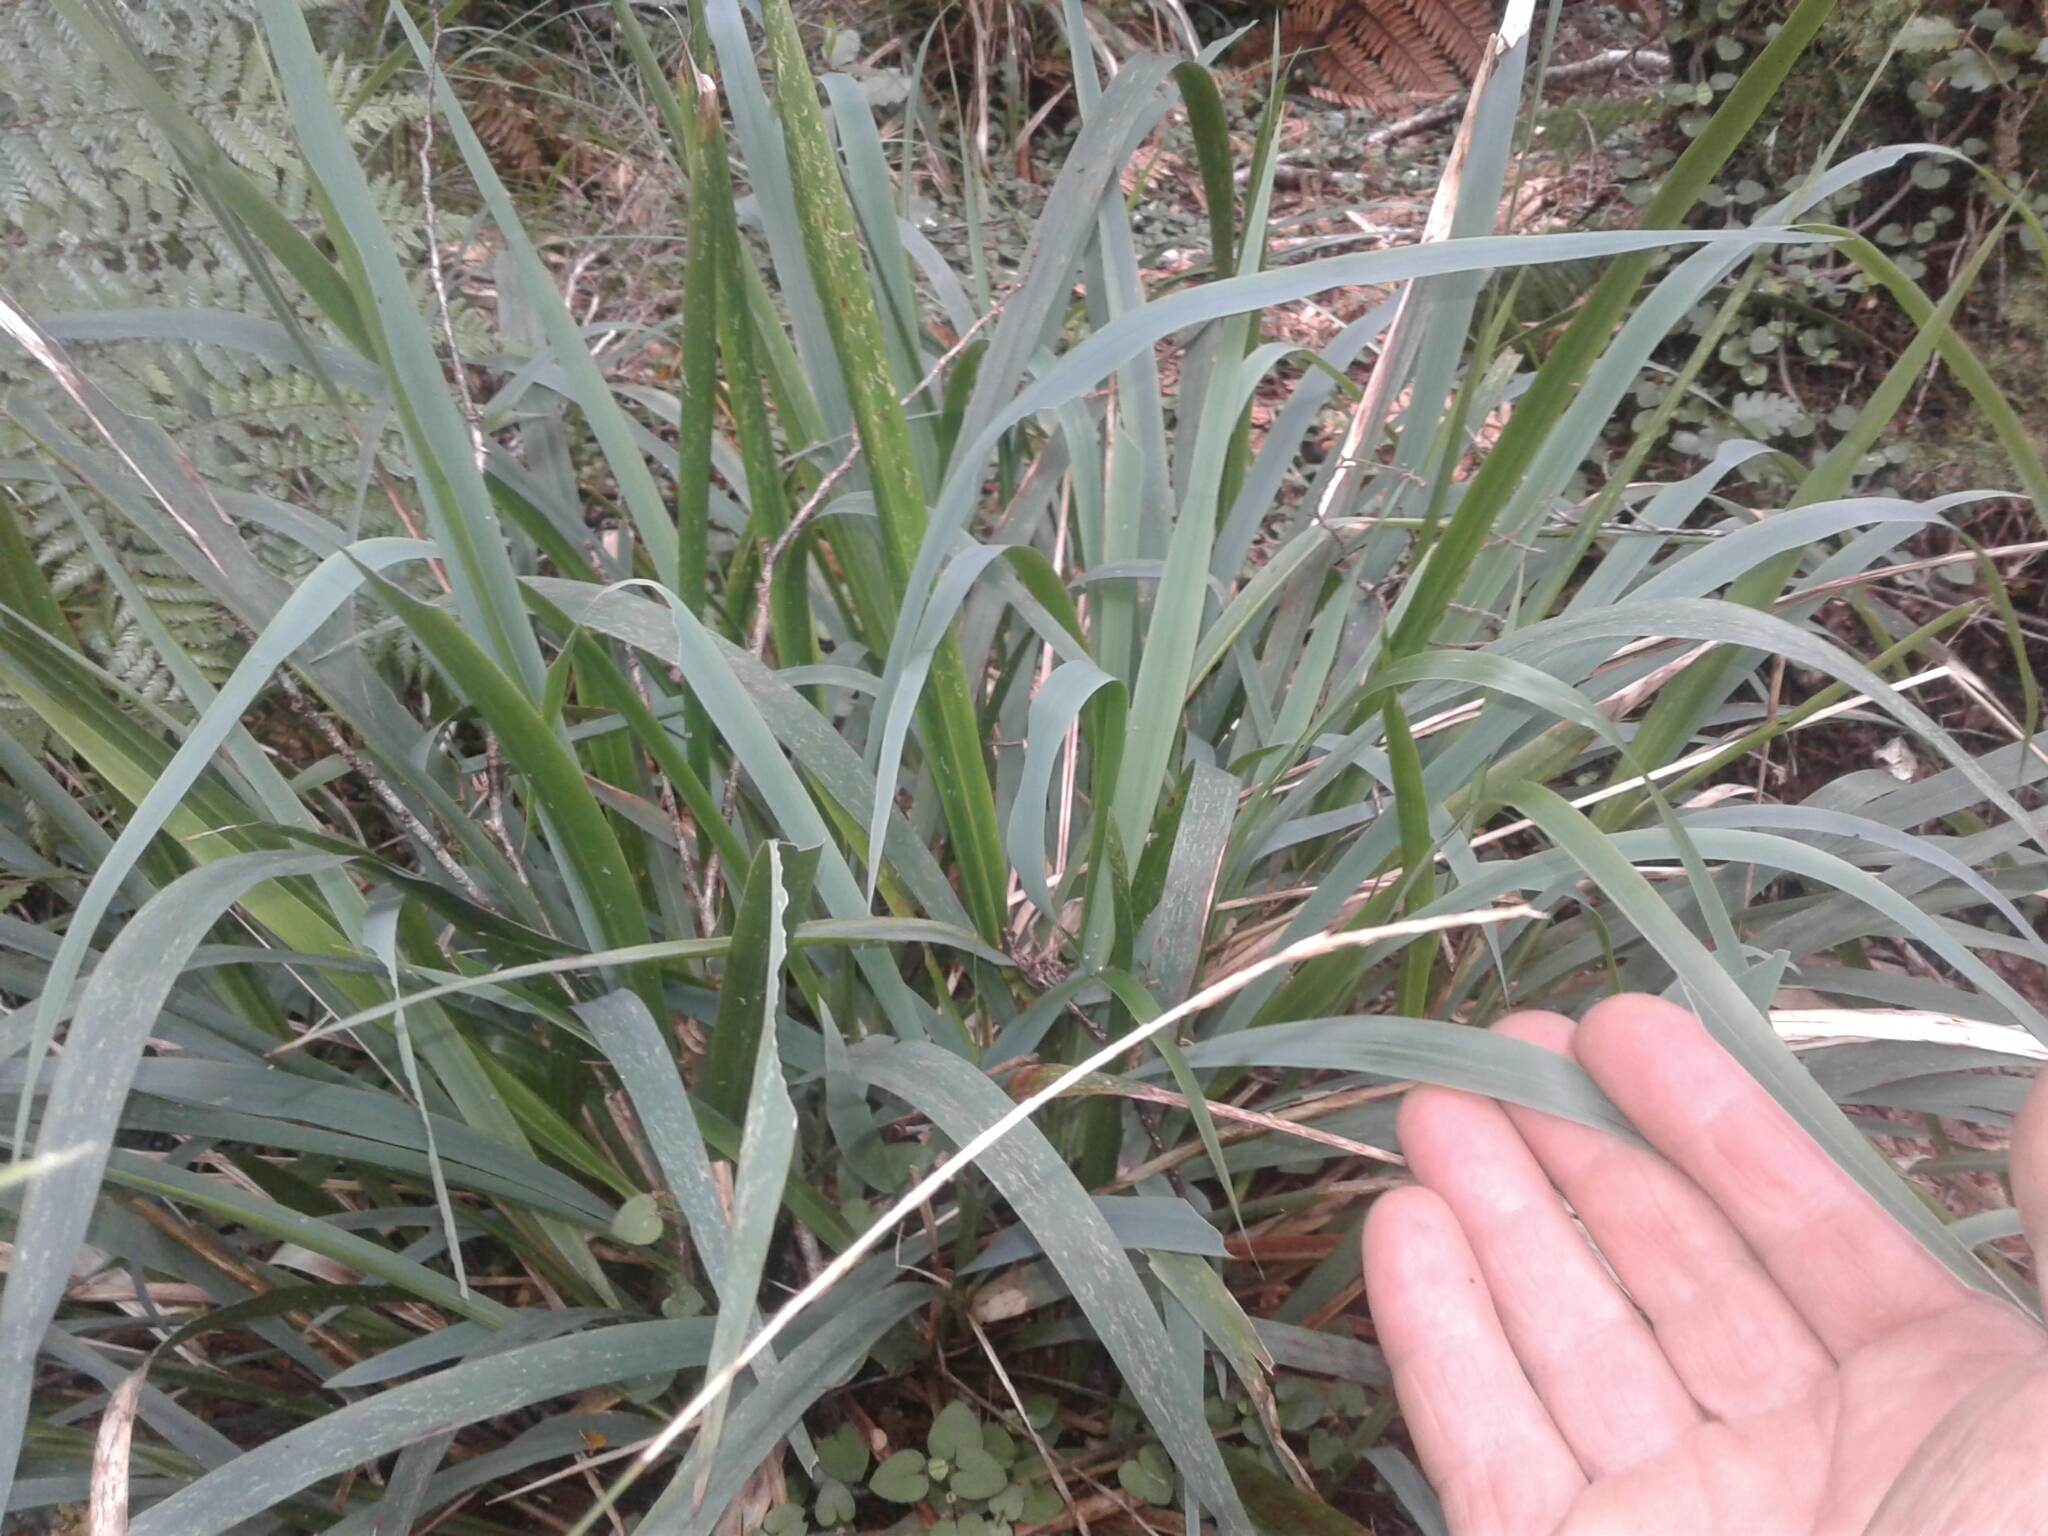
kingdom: Plantae
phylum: Tracheophyta
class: Liliopsida
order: Poales
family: Poaceae
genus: Ehrharta
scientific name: Ehrharta diplax
